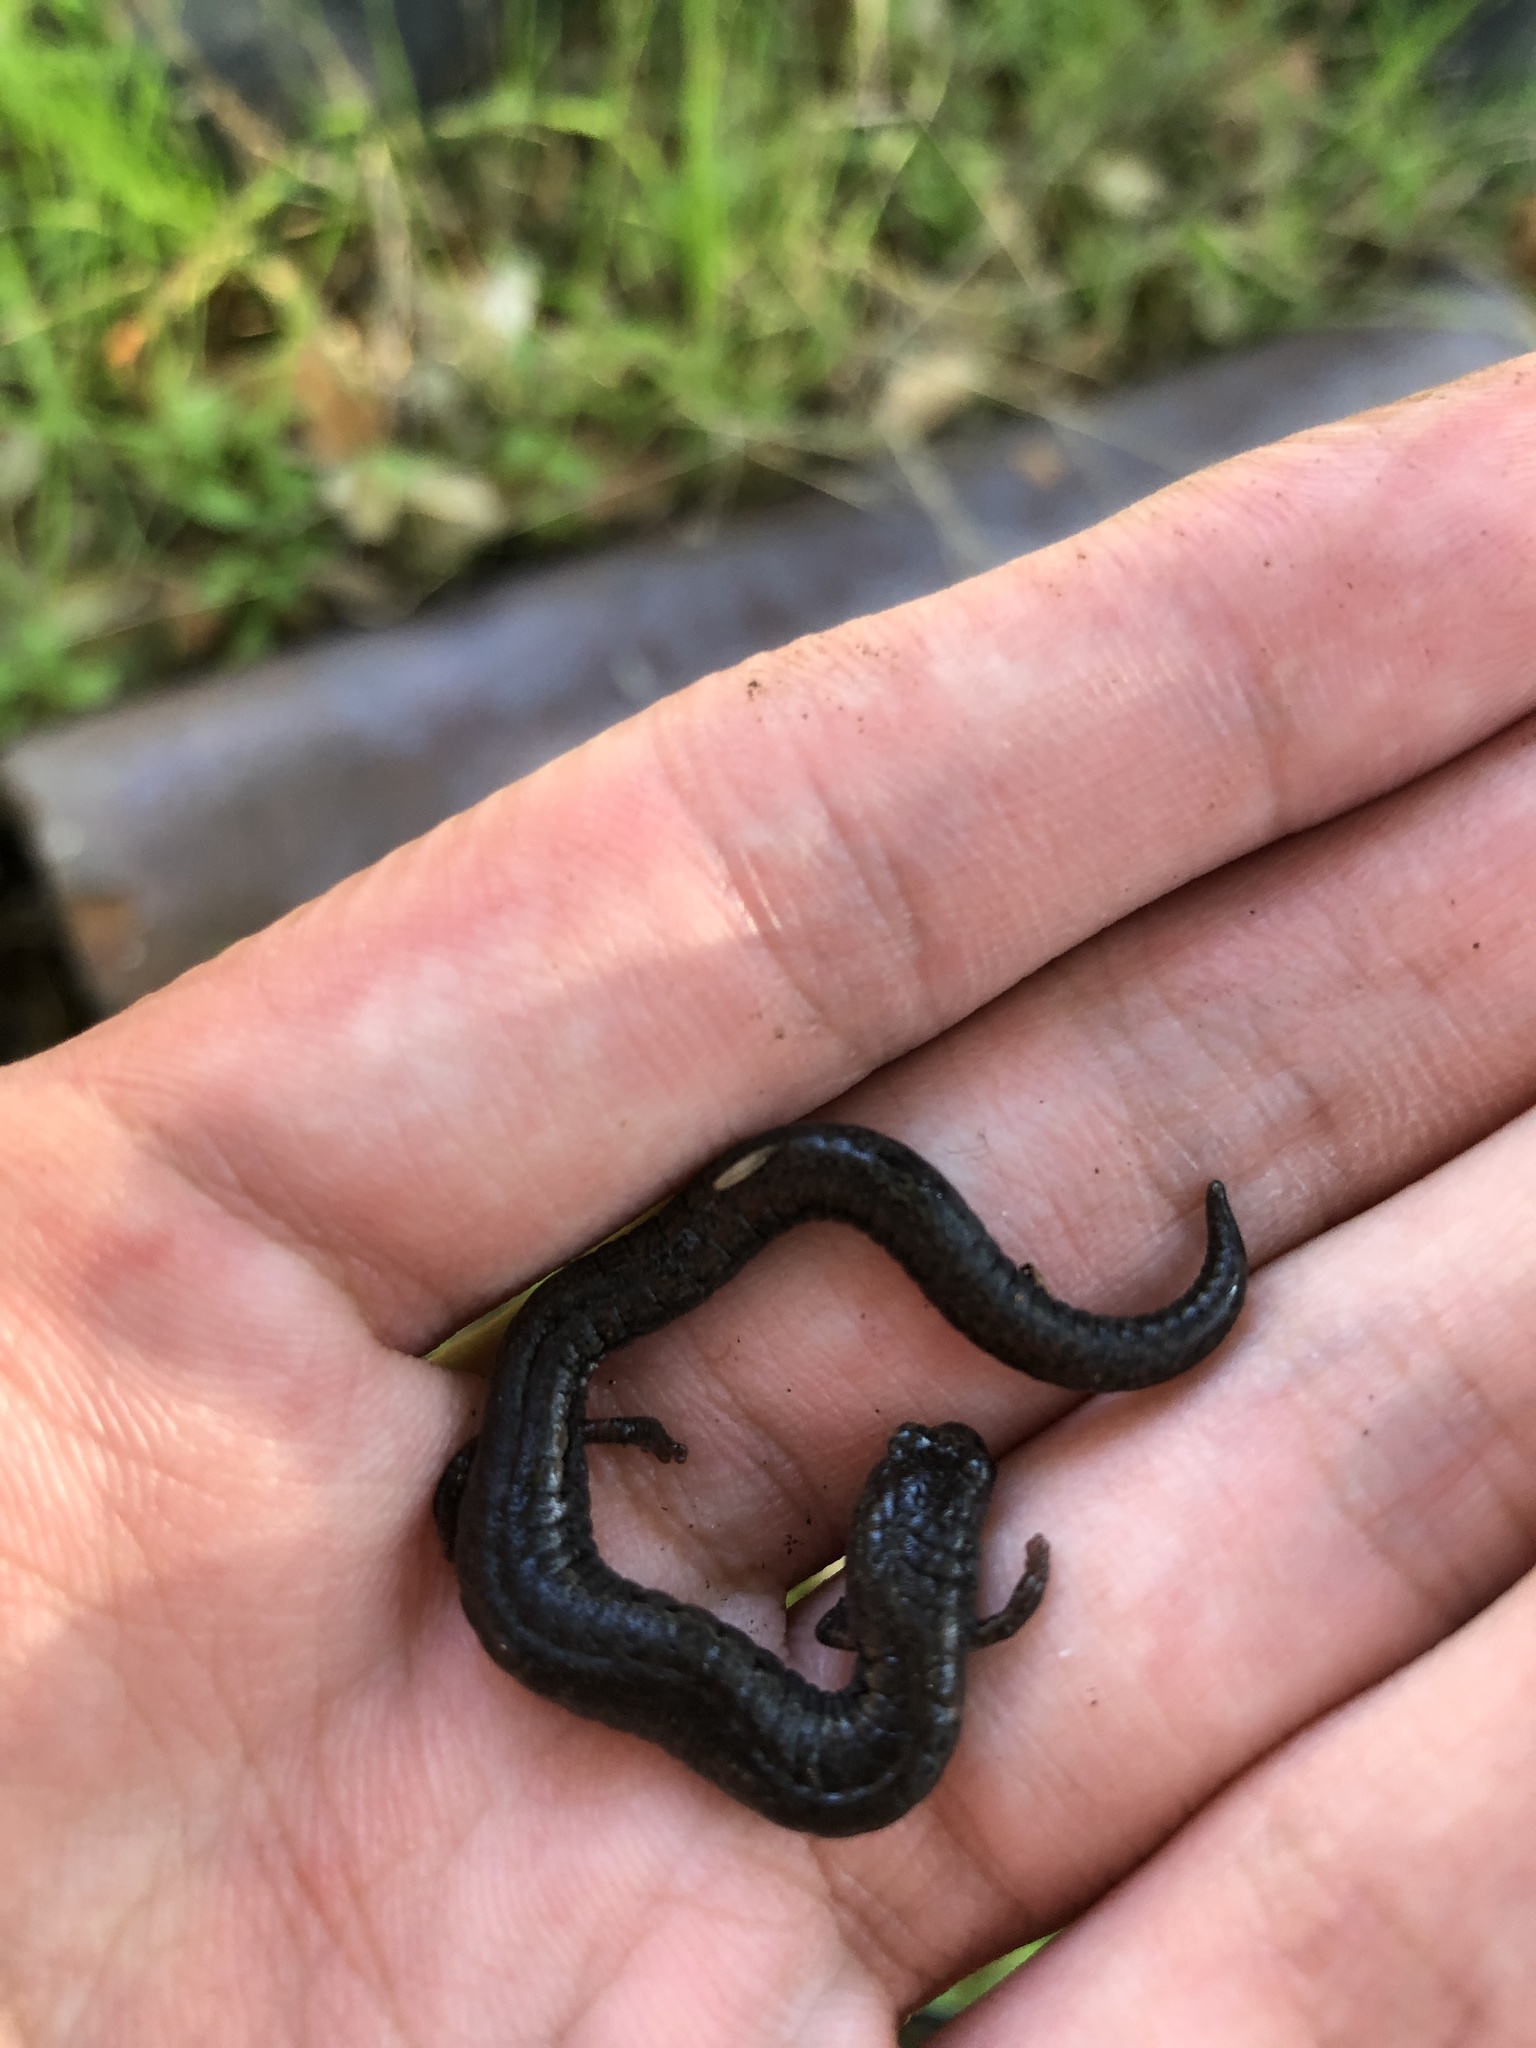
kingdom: Animalia
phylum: Chordata
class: Amphibia
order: Caudata
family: Plethodontidae
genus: Batrachoseps
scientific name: Batrachoseps attenuatus
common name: California slender salamander
